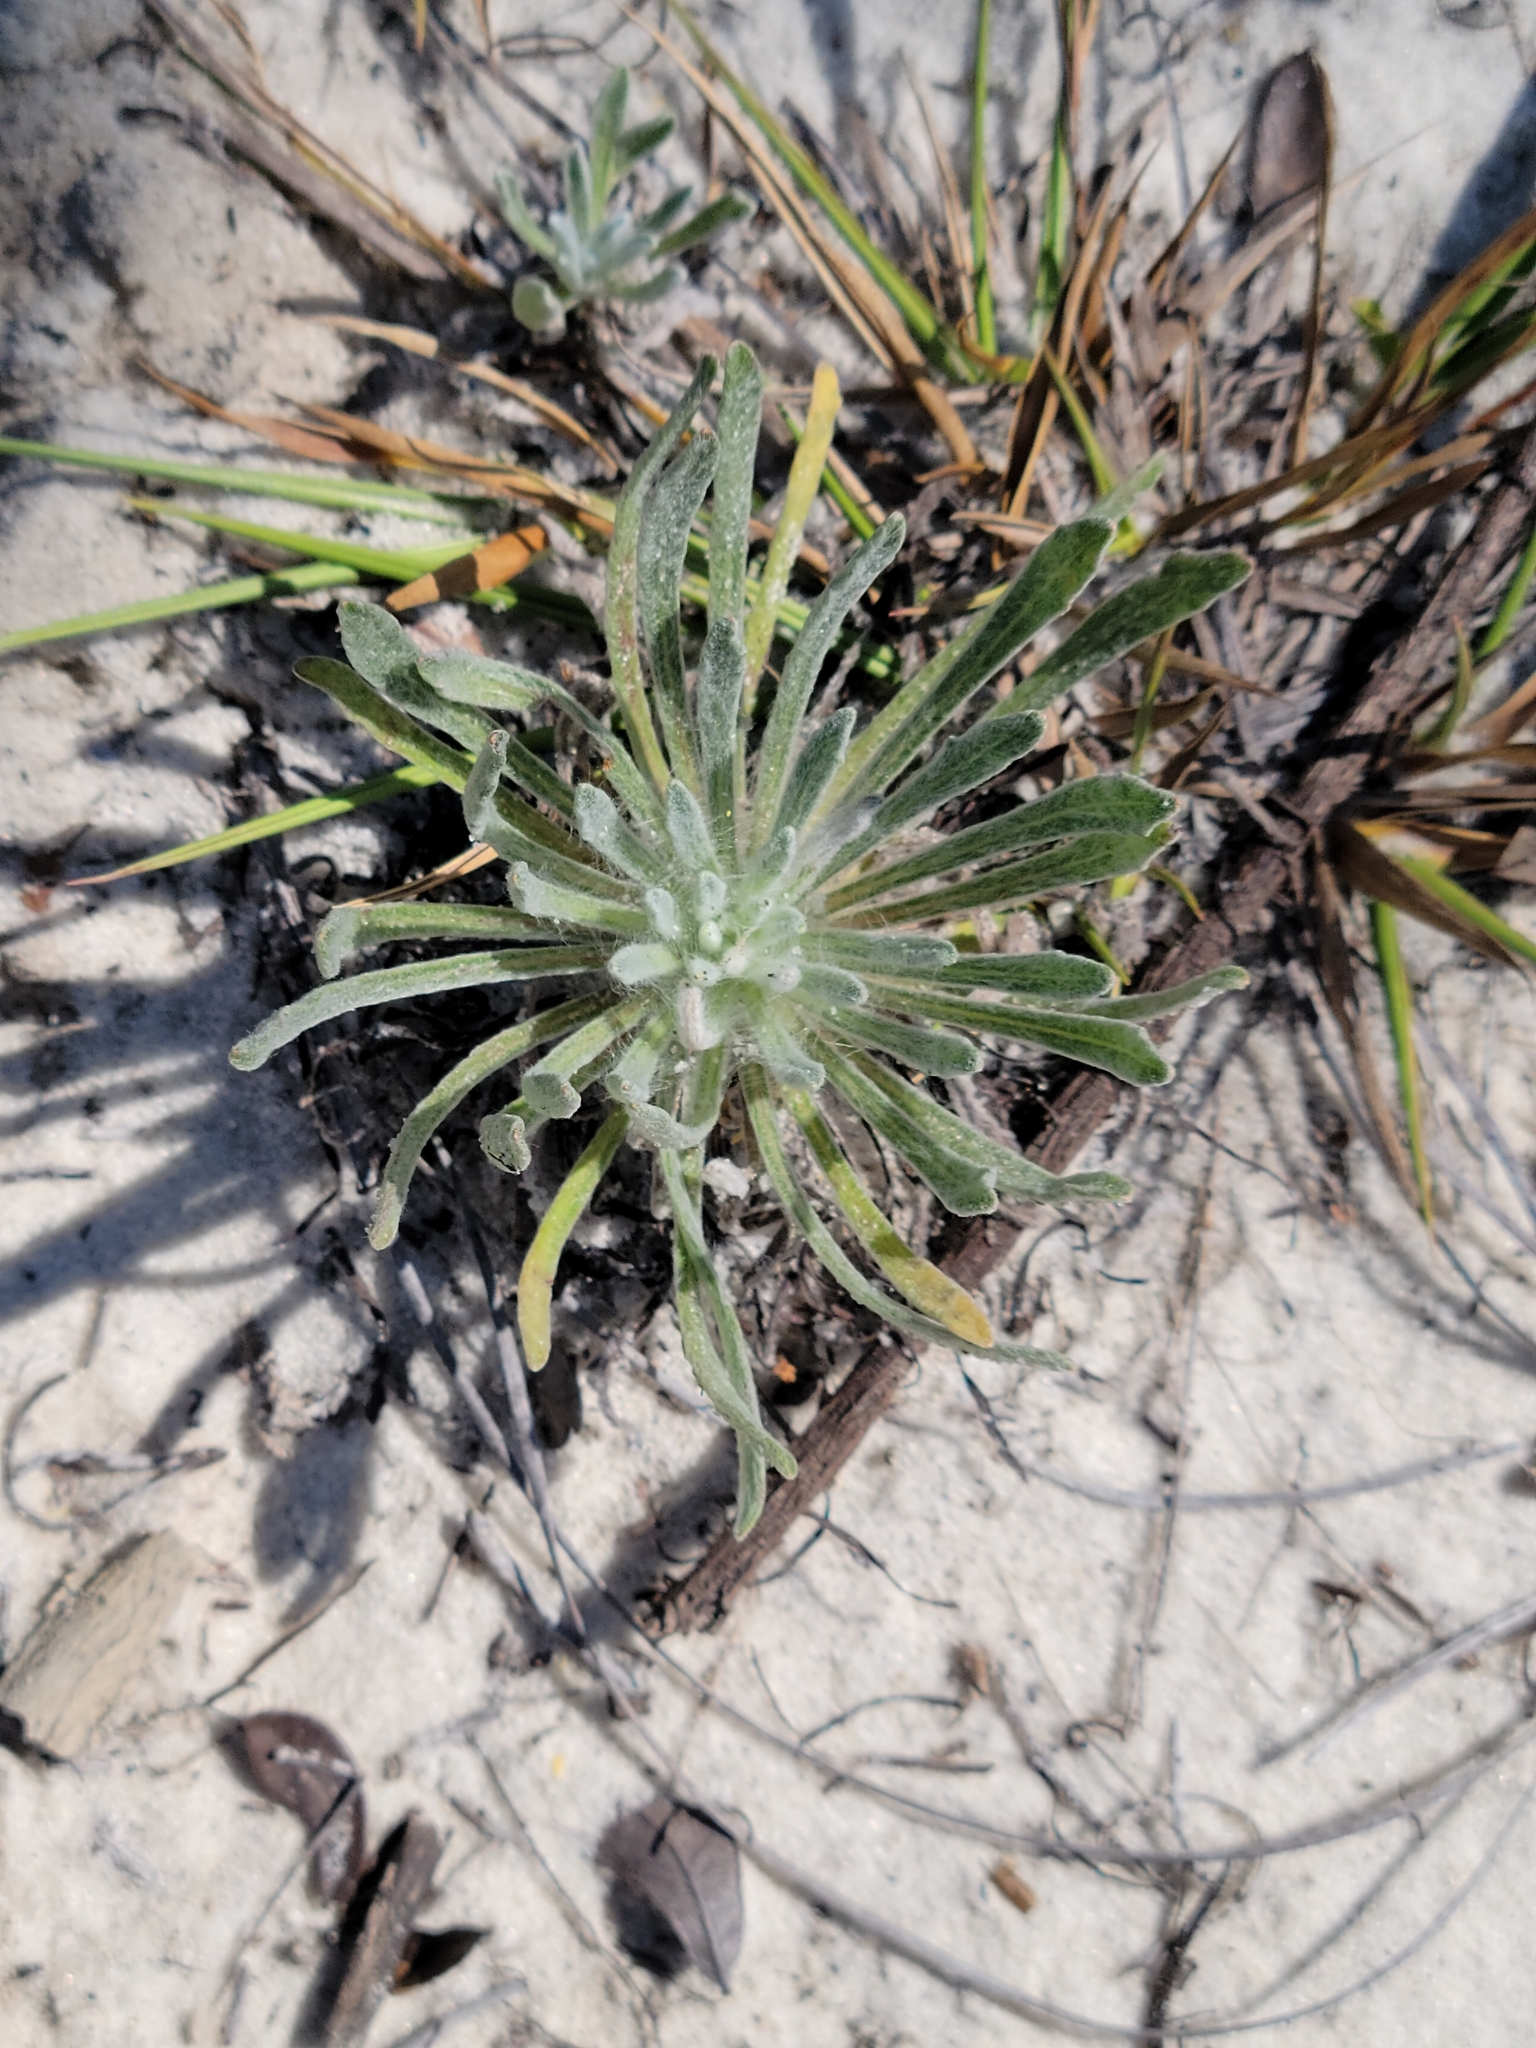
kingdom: Plantae
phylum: Tracheophyta
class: Magnoliopsida
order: Asterales
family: Asteraceae
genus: Chrysopsis
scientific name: Chrysopsis linearifolia
